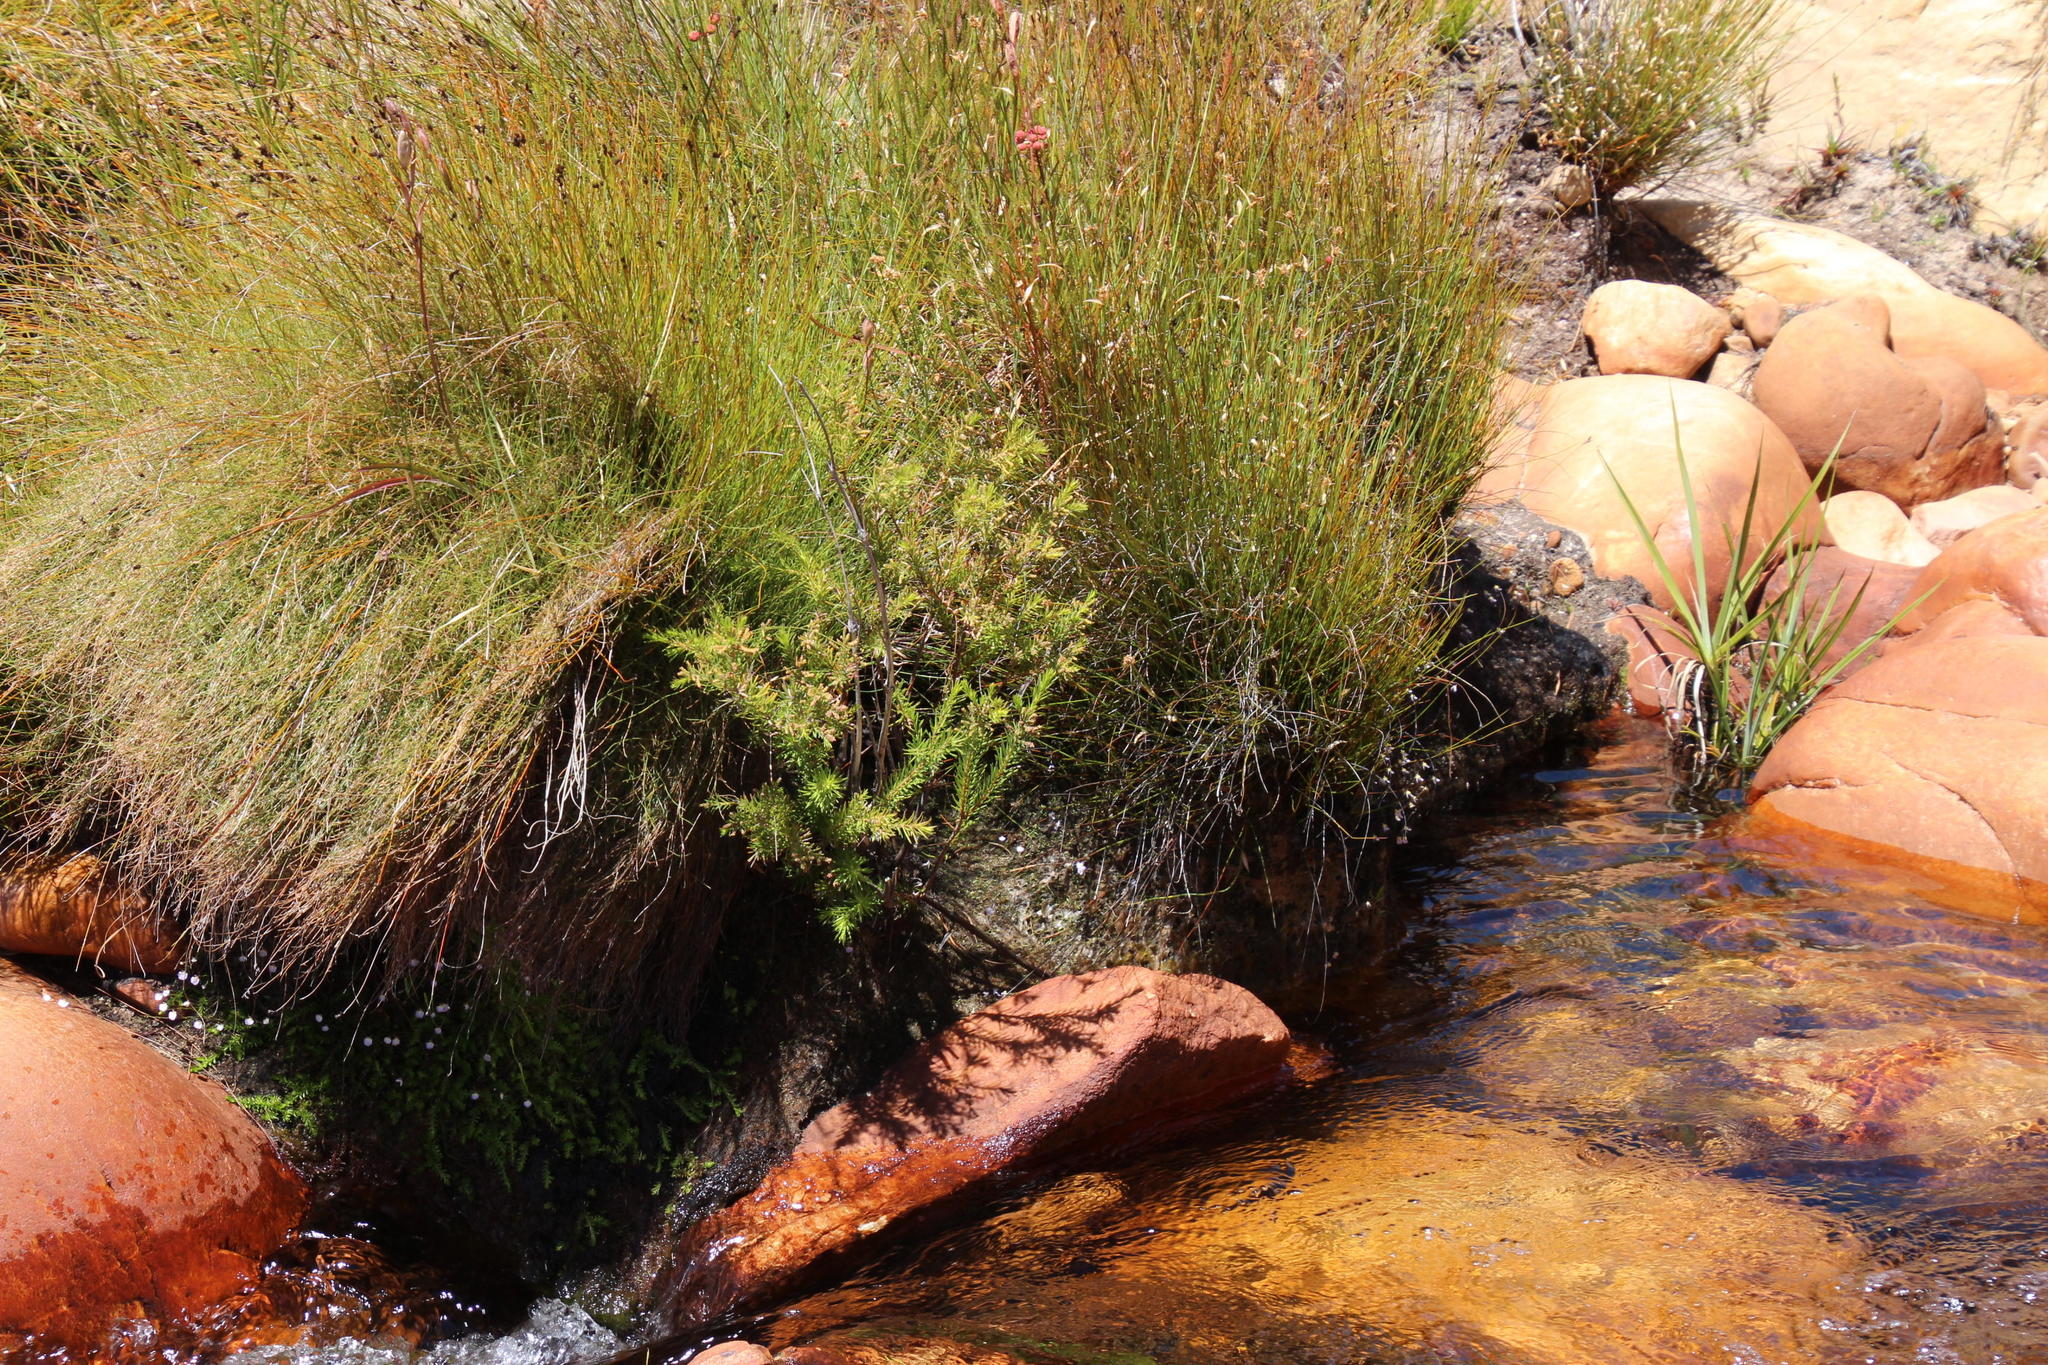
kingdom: Plantae
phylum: Tracheophyta
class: Magnoliopsida
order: Bruniales
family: Bruniaceae
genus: Brunia
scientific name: Brunia africana
